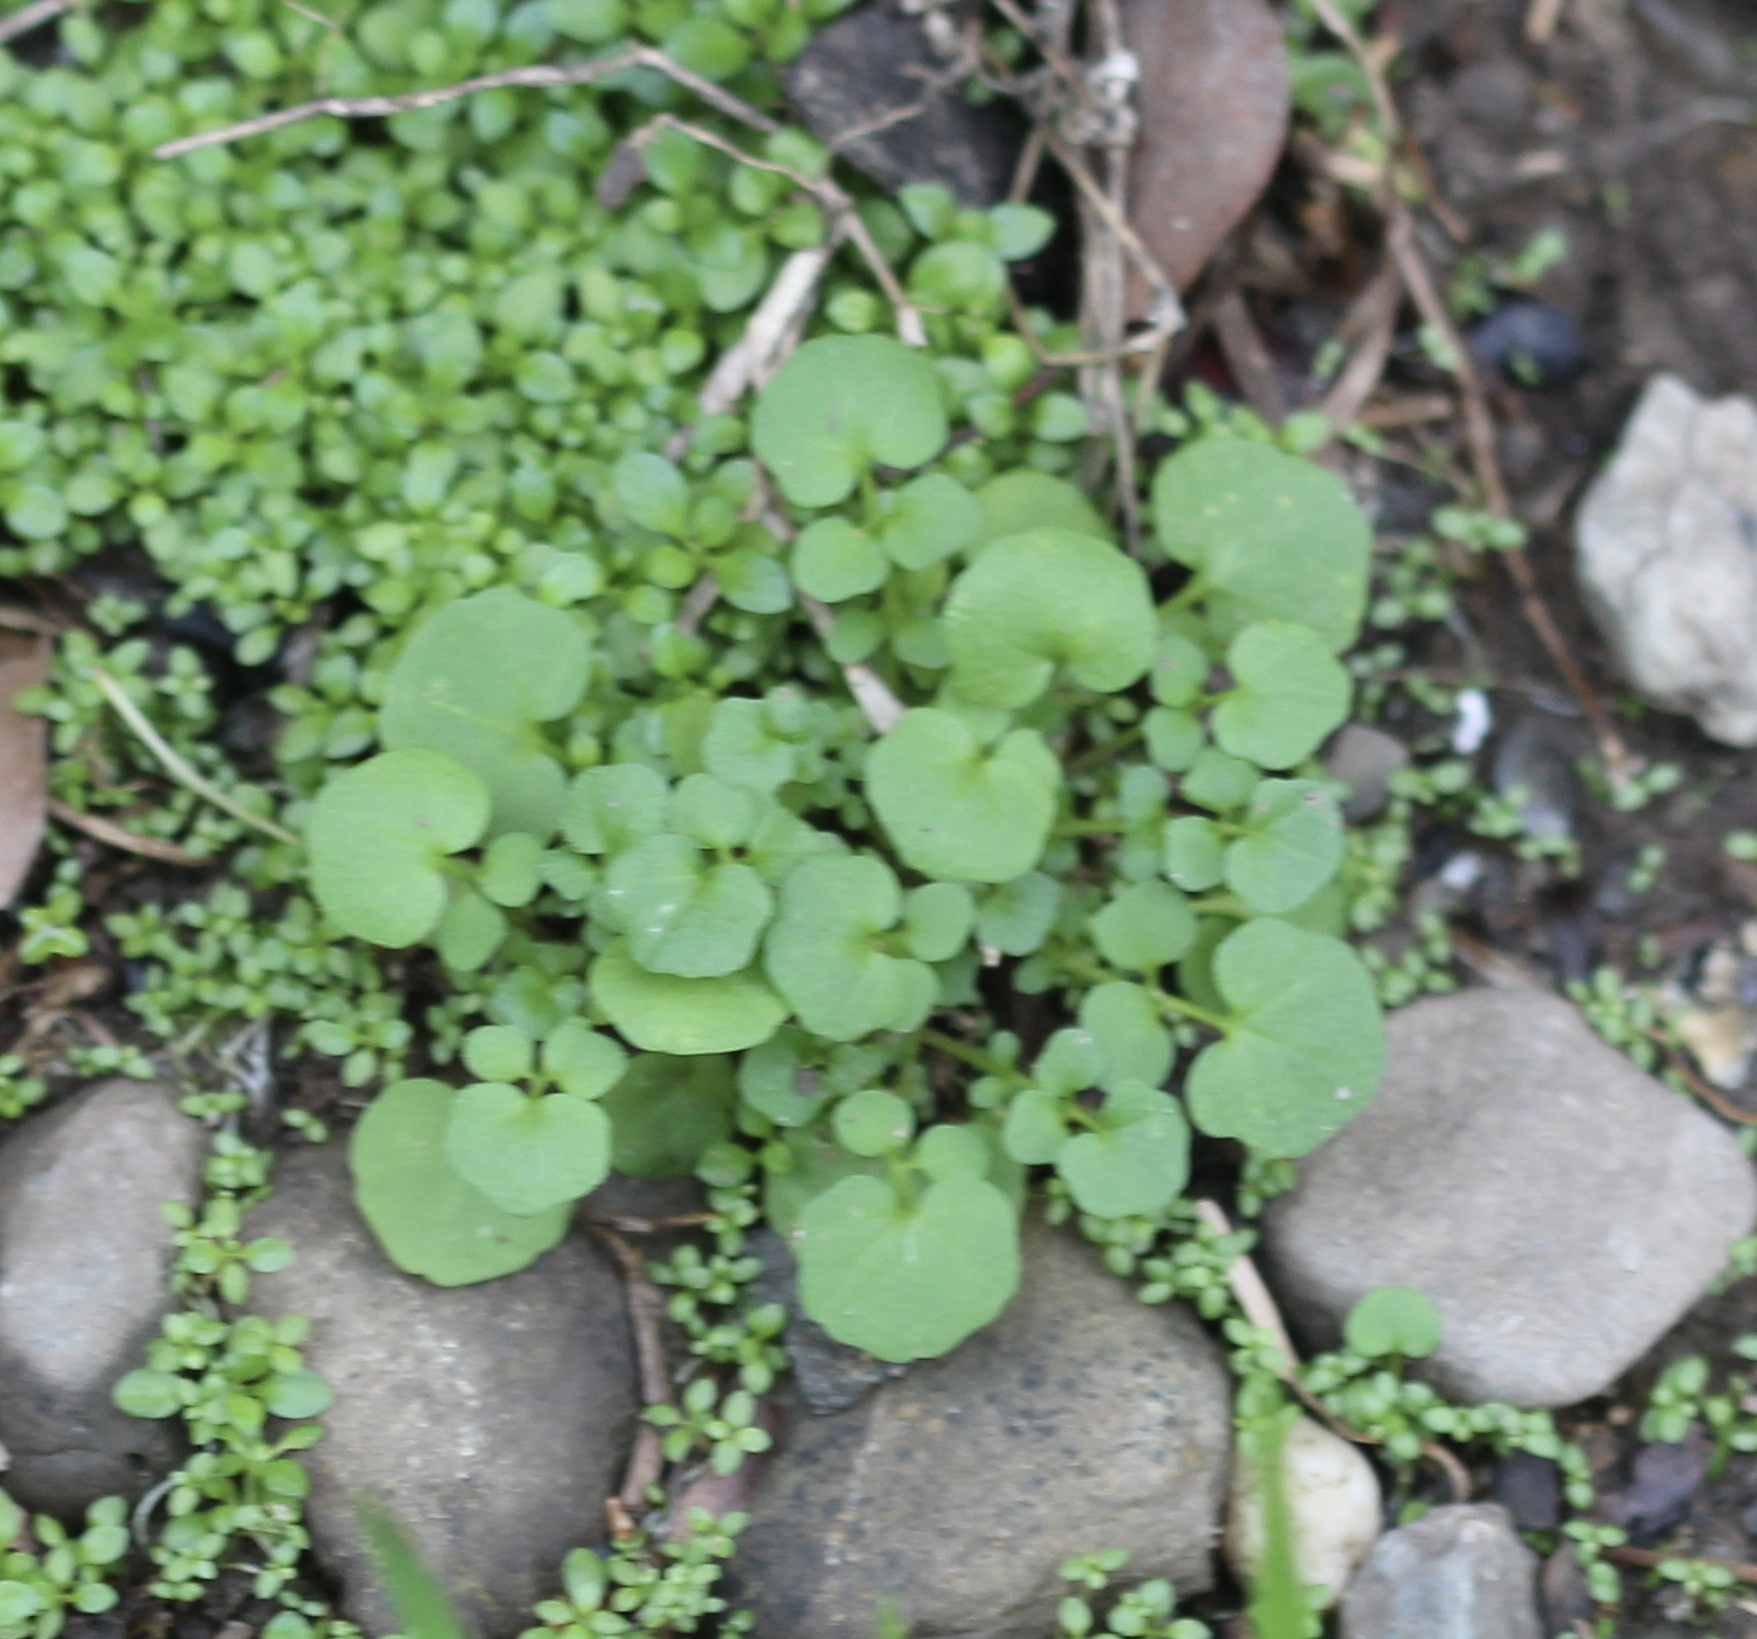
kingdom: Plantae
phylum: Tracheophyta
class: Magnoliopsida
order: Brassicales
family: Brassicaceae
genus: Cardamine
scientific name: Cardamine hirsuta
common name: Hairy bittercress
